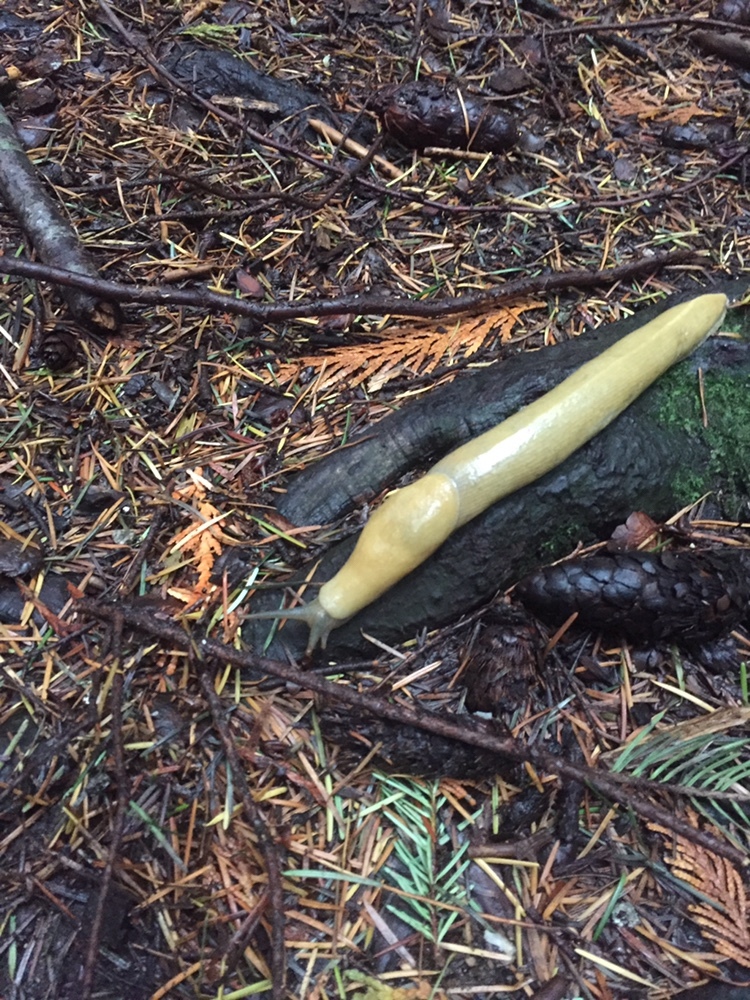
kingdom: Animalia
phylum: Mollusca
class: Gastropoda
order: Stylommatophora
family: Ariolimacidae
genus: Ariolimax
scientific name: Ariolimax columbianus
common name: Pacific banana slug
